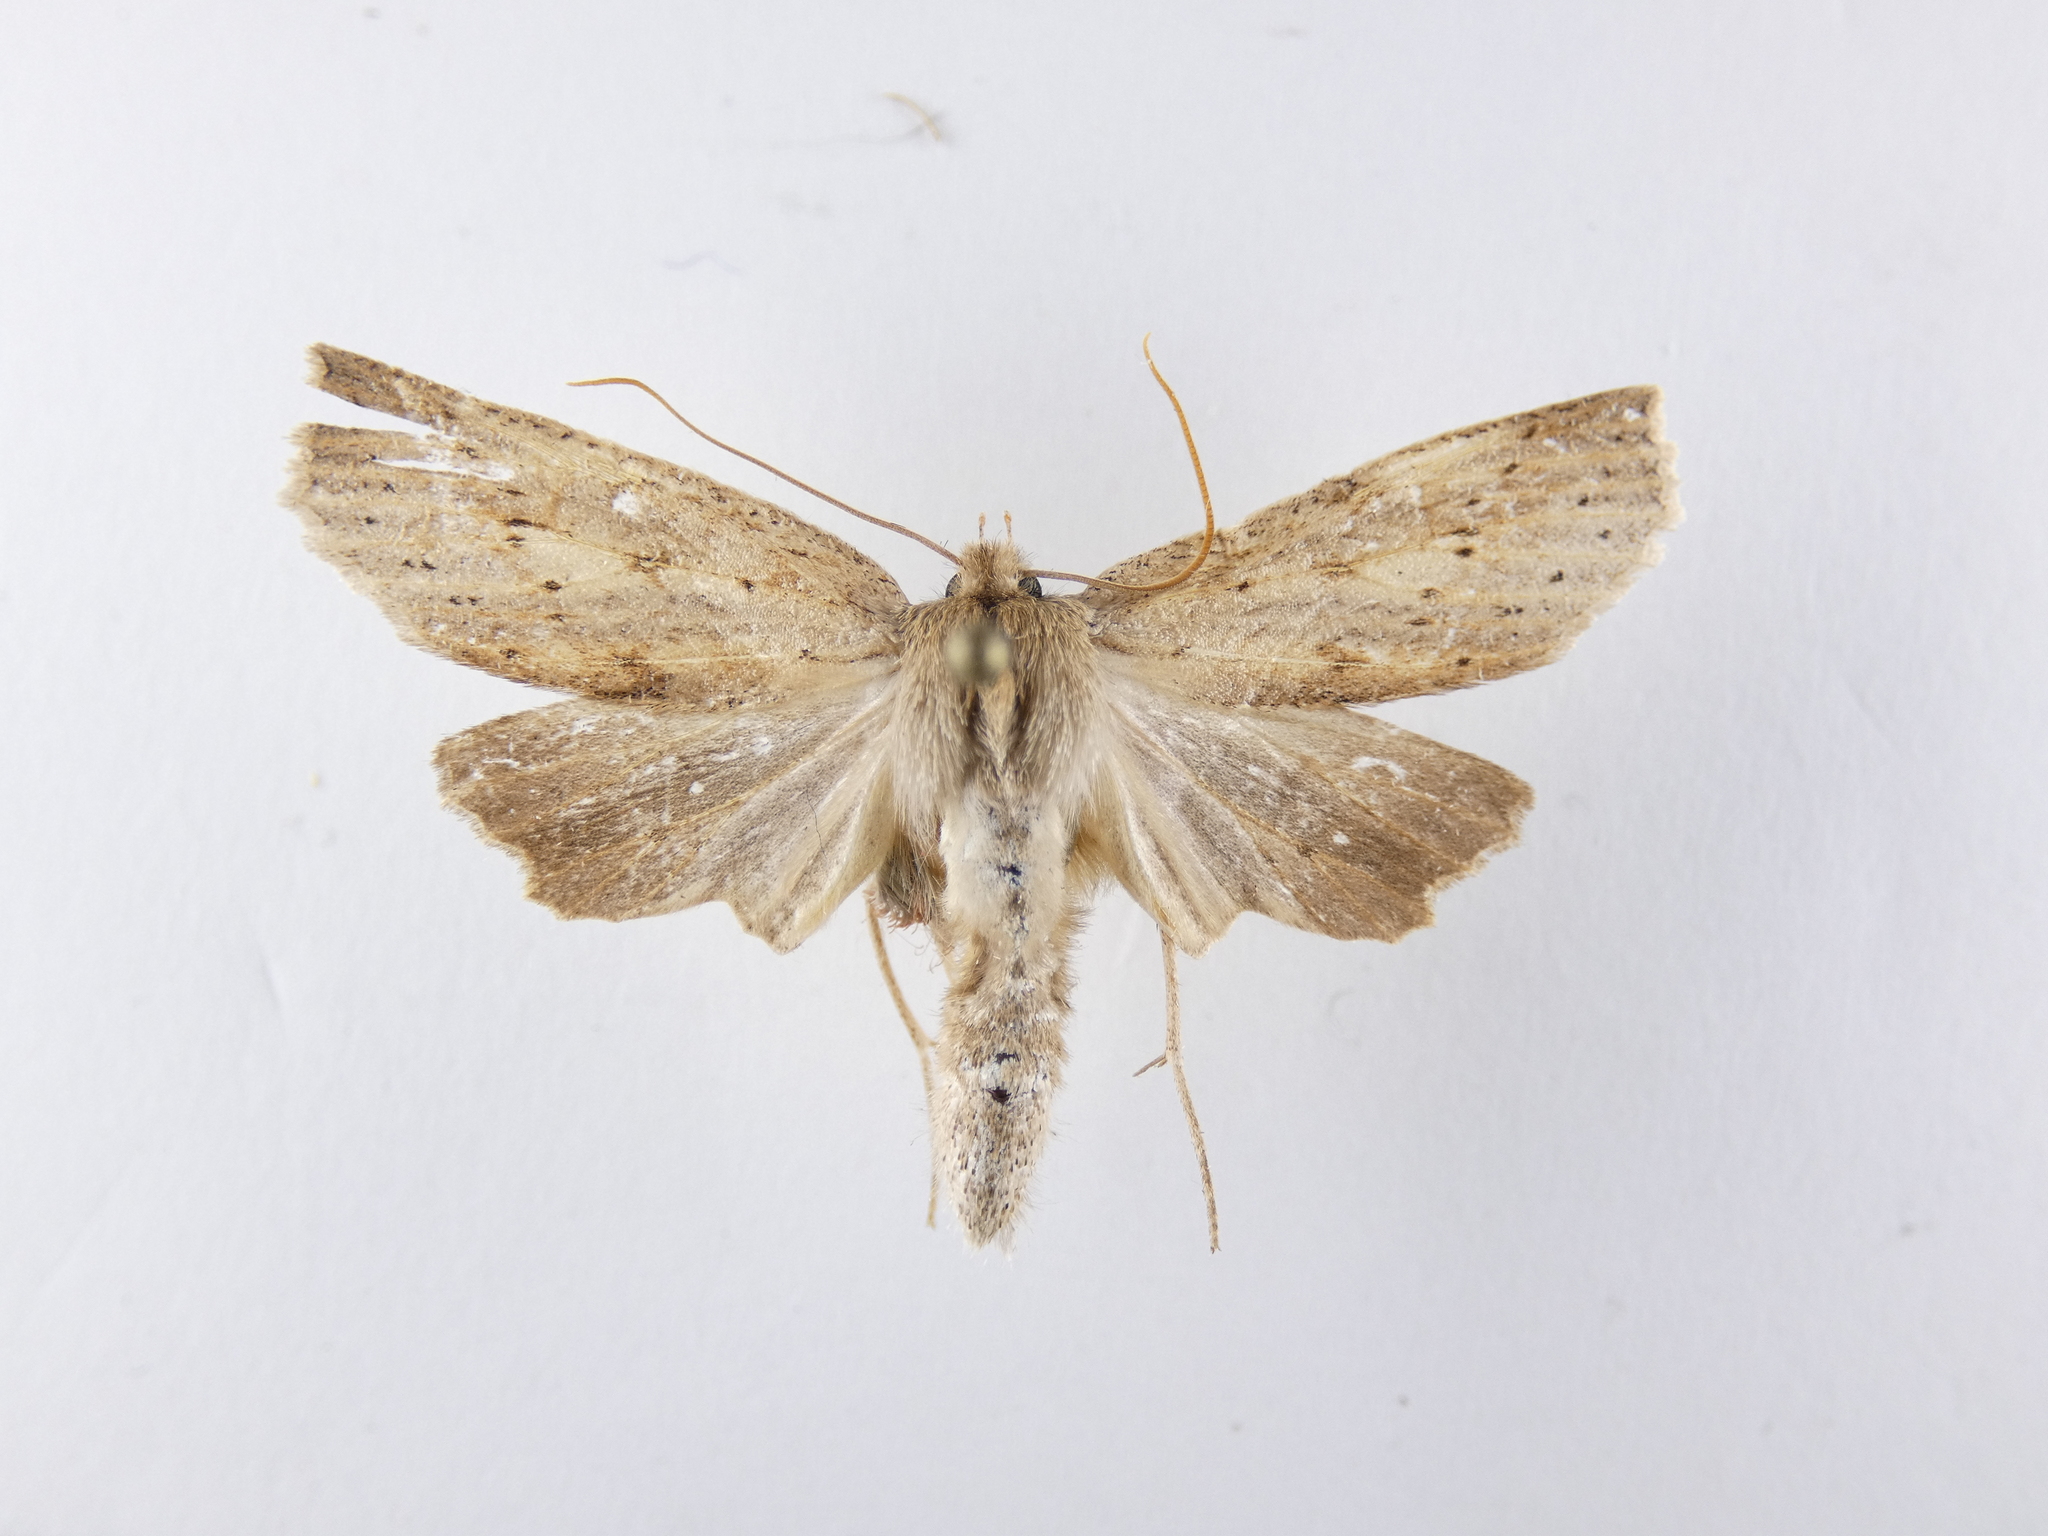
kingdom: Animalia
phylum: Arthropoda
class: Insecta
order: Lepidoptera
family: Geometridae
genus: Declana
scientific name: Declana leptomera
